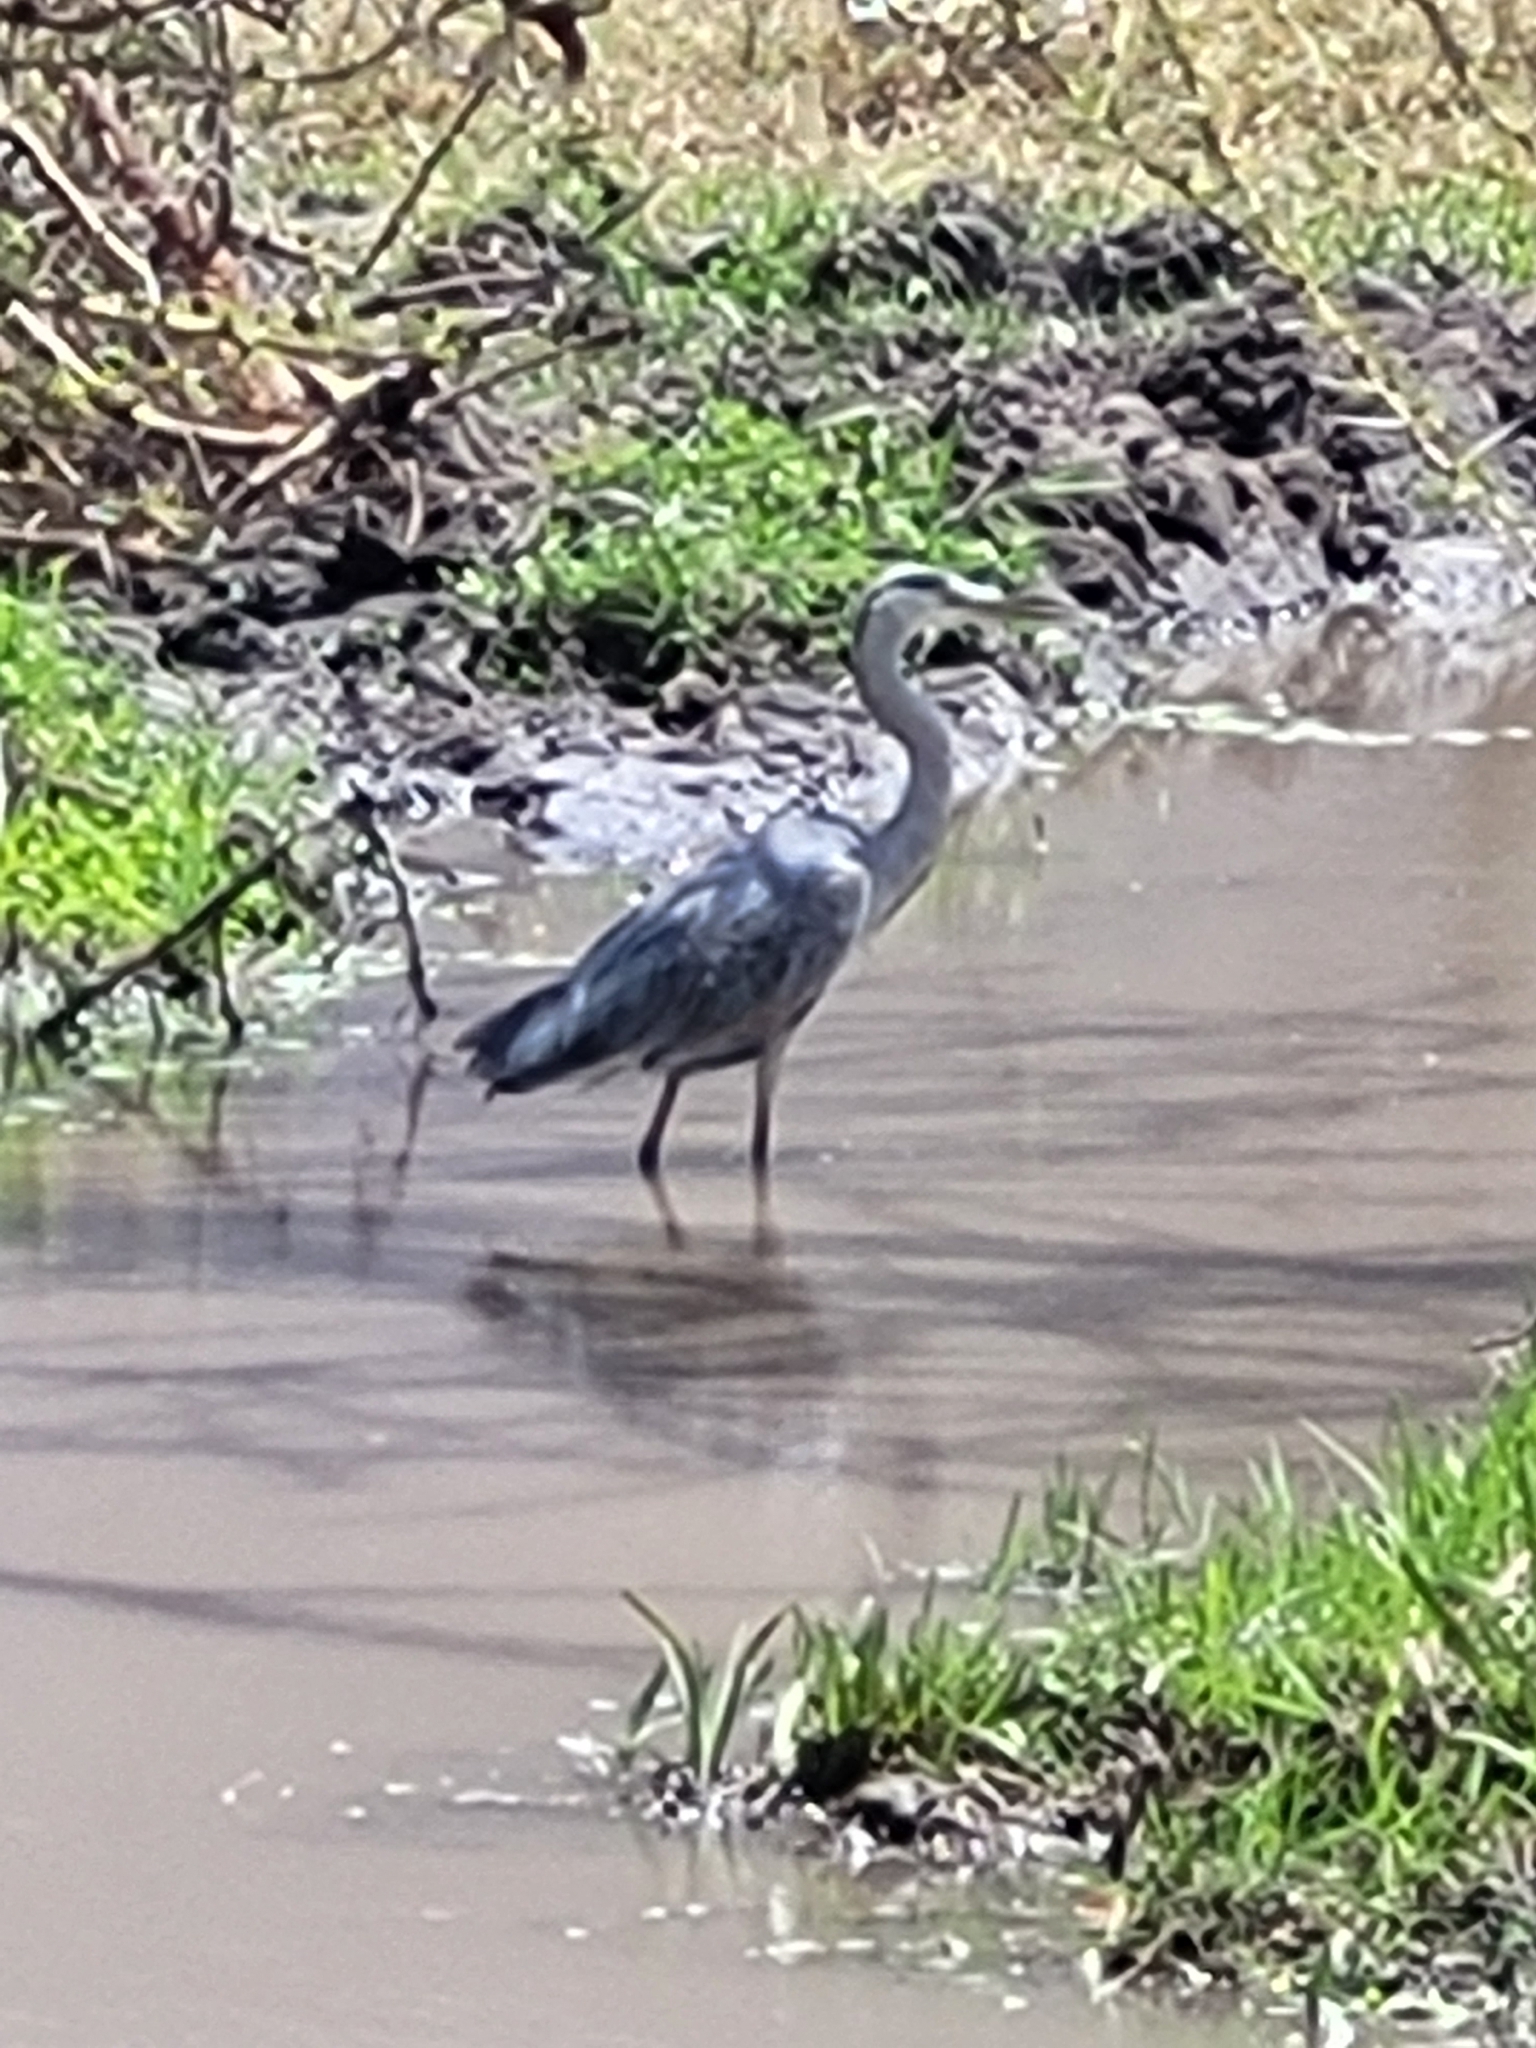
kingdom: Animalia
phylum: Chordata
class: Aves
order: Pelecaniformes
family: Ardeidae
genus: Ardea
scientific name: Ardea cinerea
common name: Grey heron
